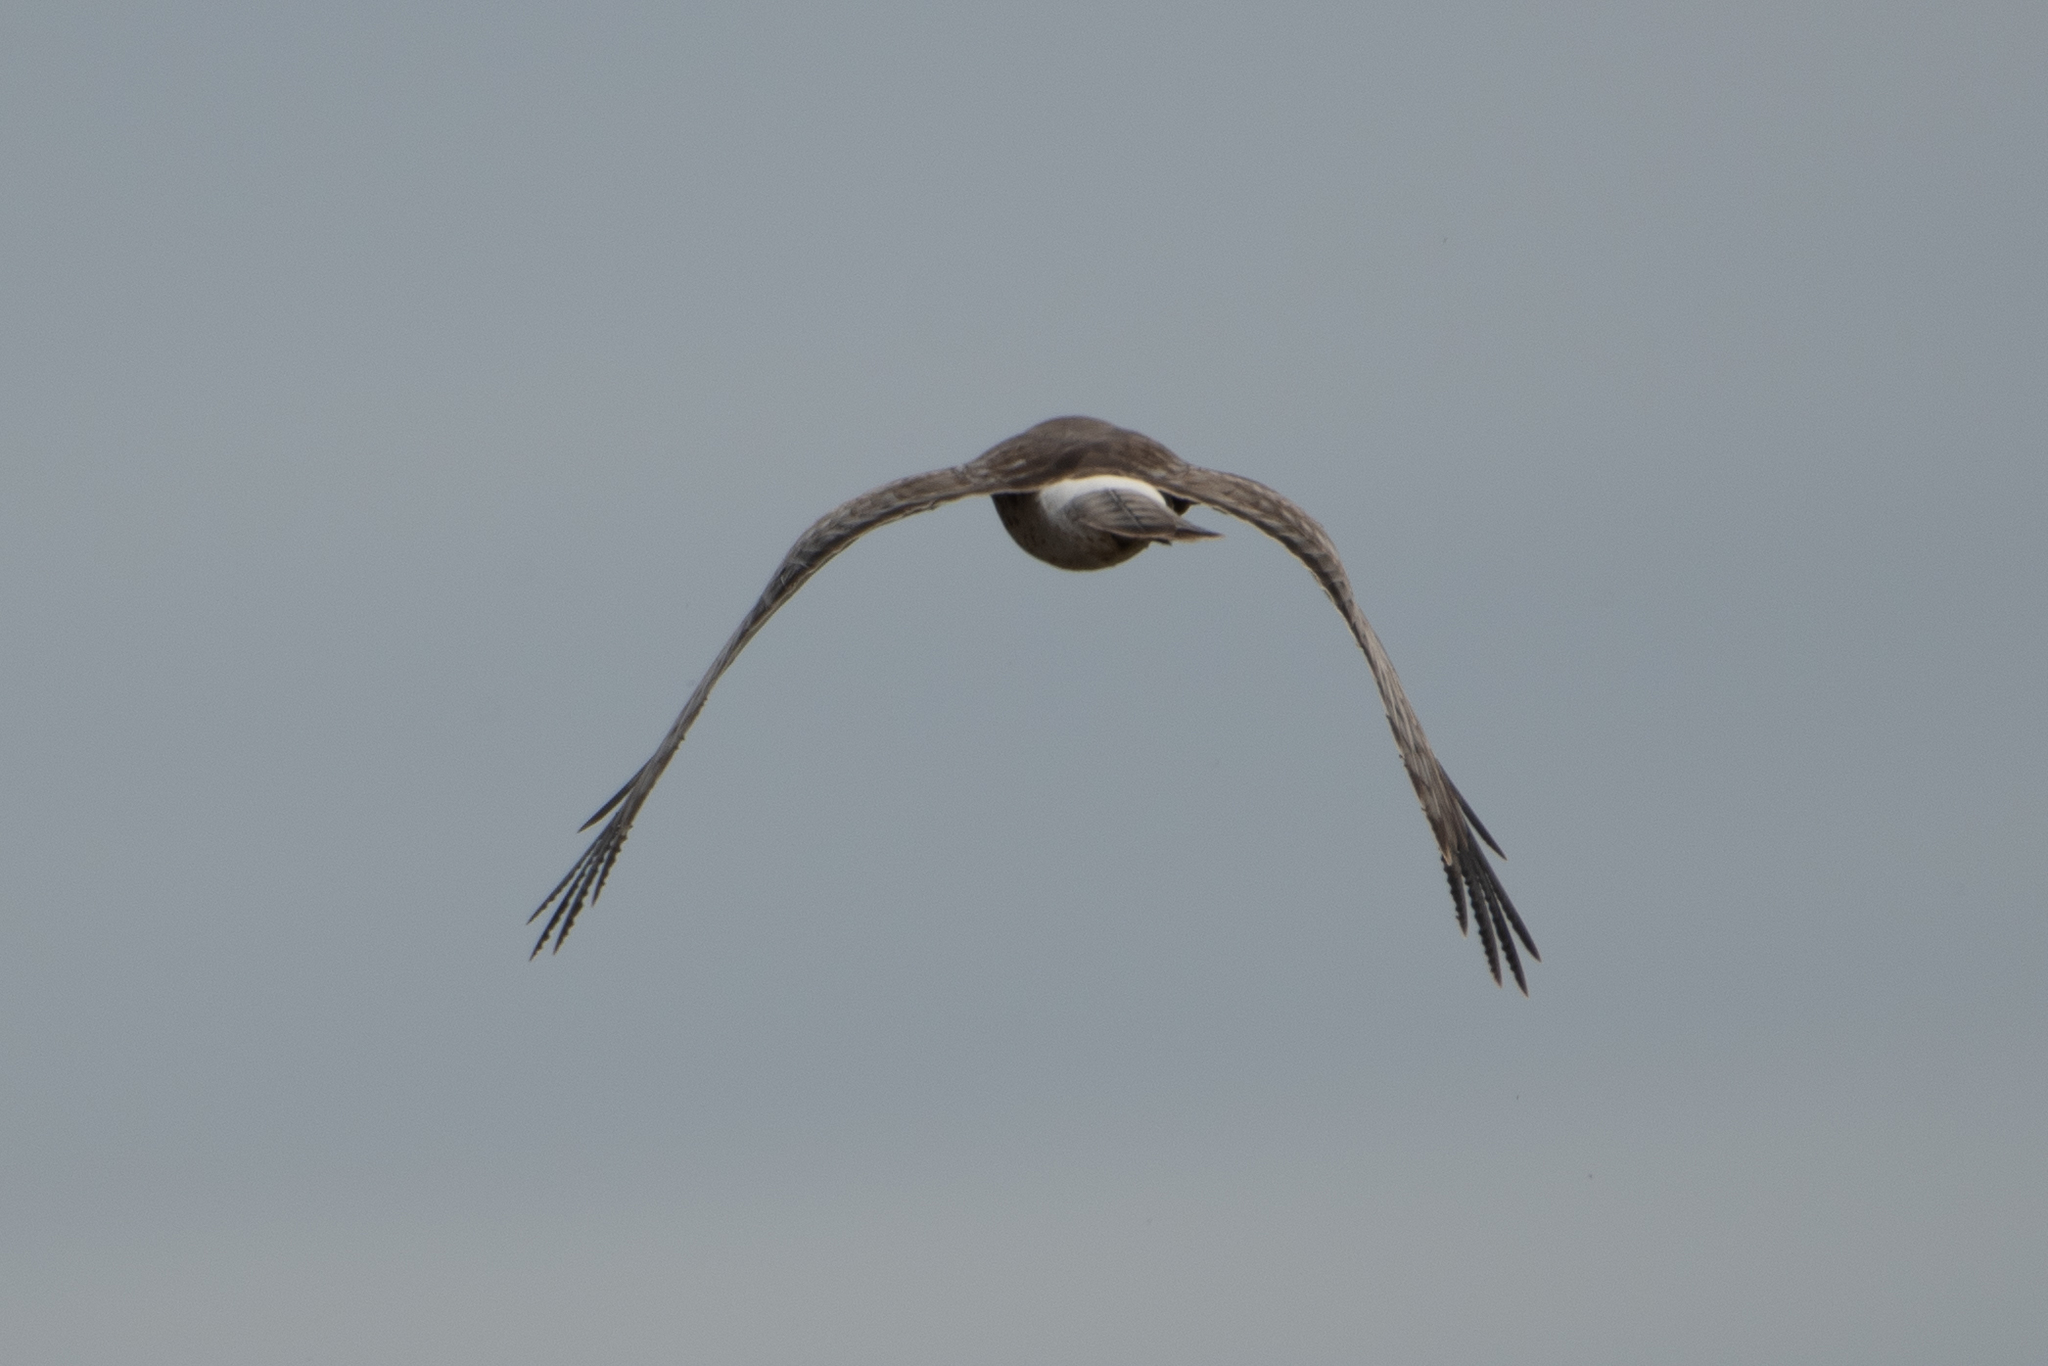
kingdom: Animalia
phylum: Chordata
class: Aves
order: Accipitriformes
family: Accipitridae
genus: Circus
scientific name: Circus cyaneus
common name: Hen harrier
